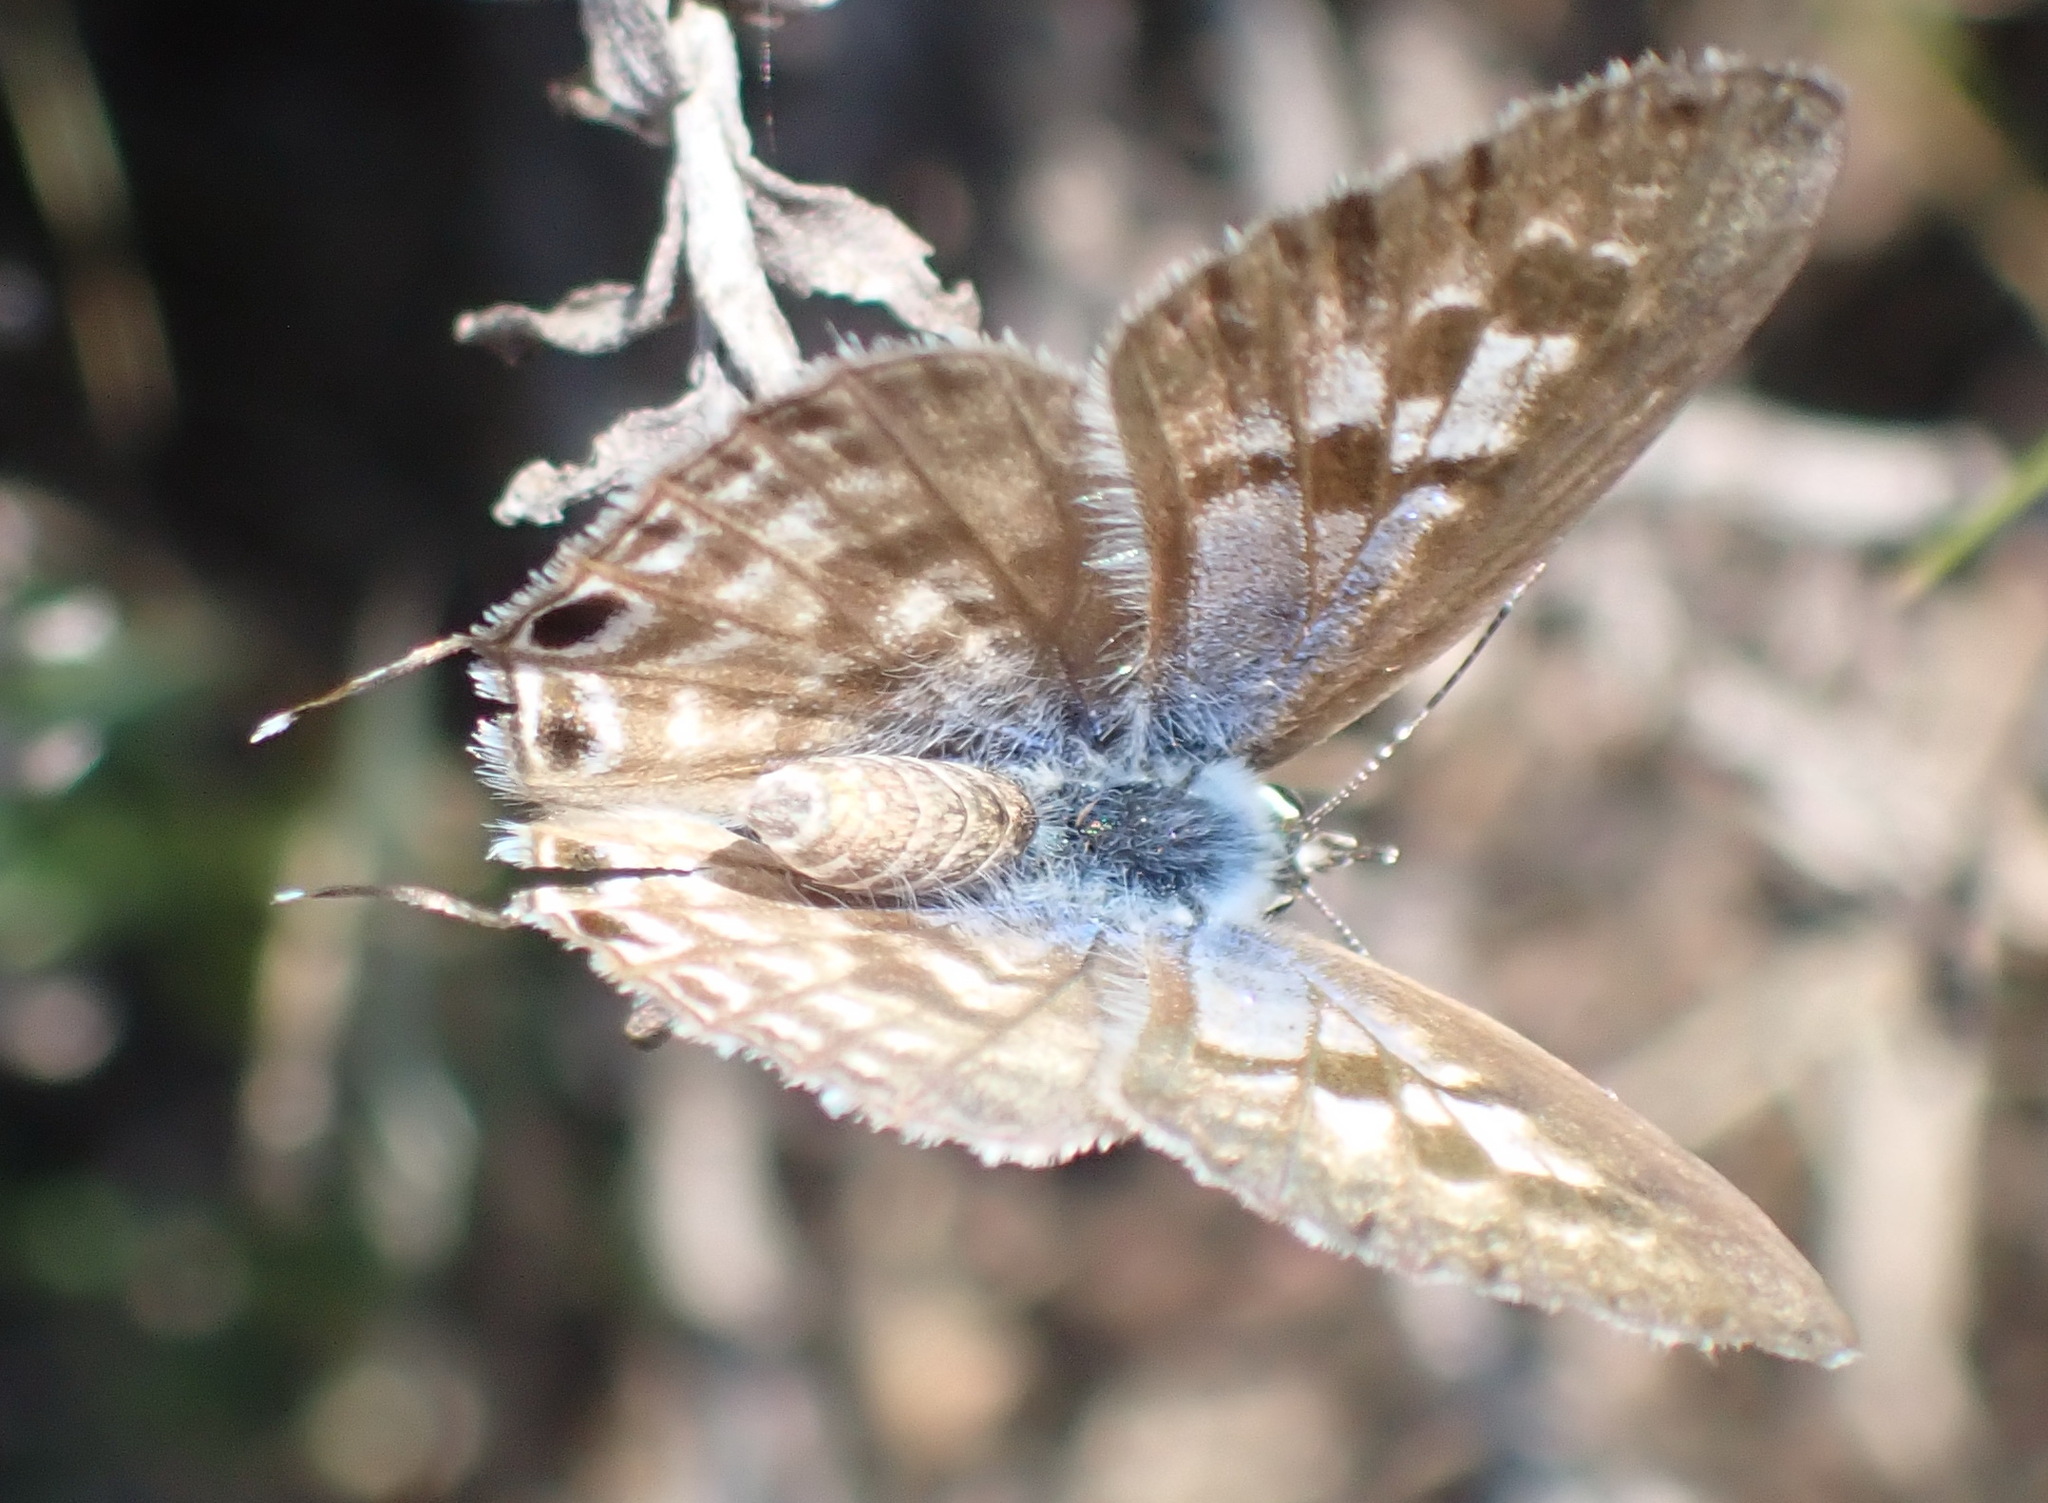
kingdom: Animalia
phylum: Arthropoda
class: Insecta
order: Lepidoptera
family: Lycaenidae
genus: Leptotes
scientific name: Leptotes
